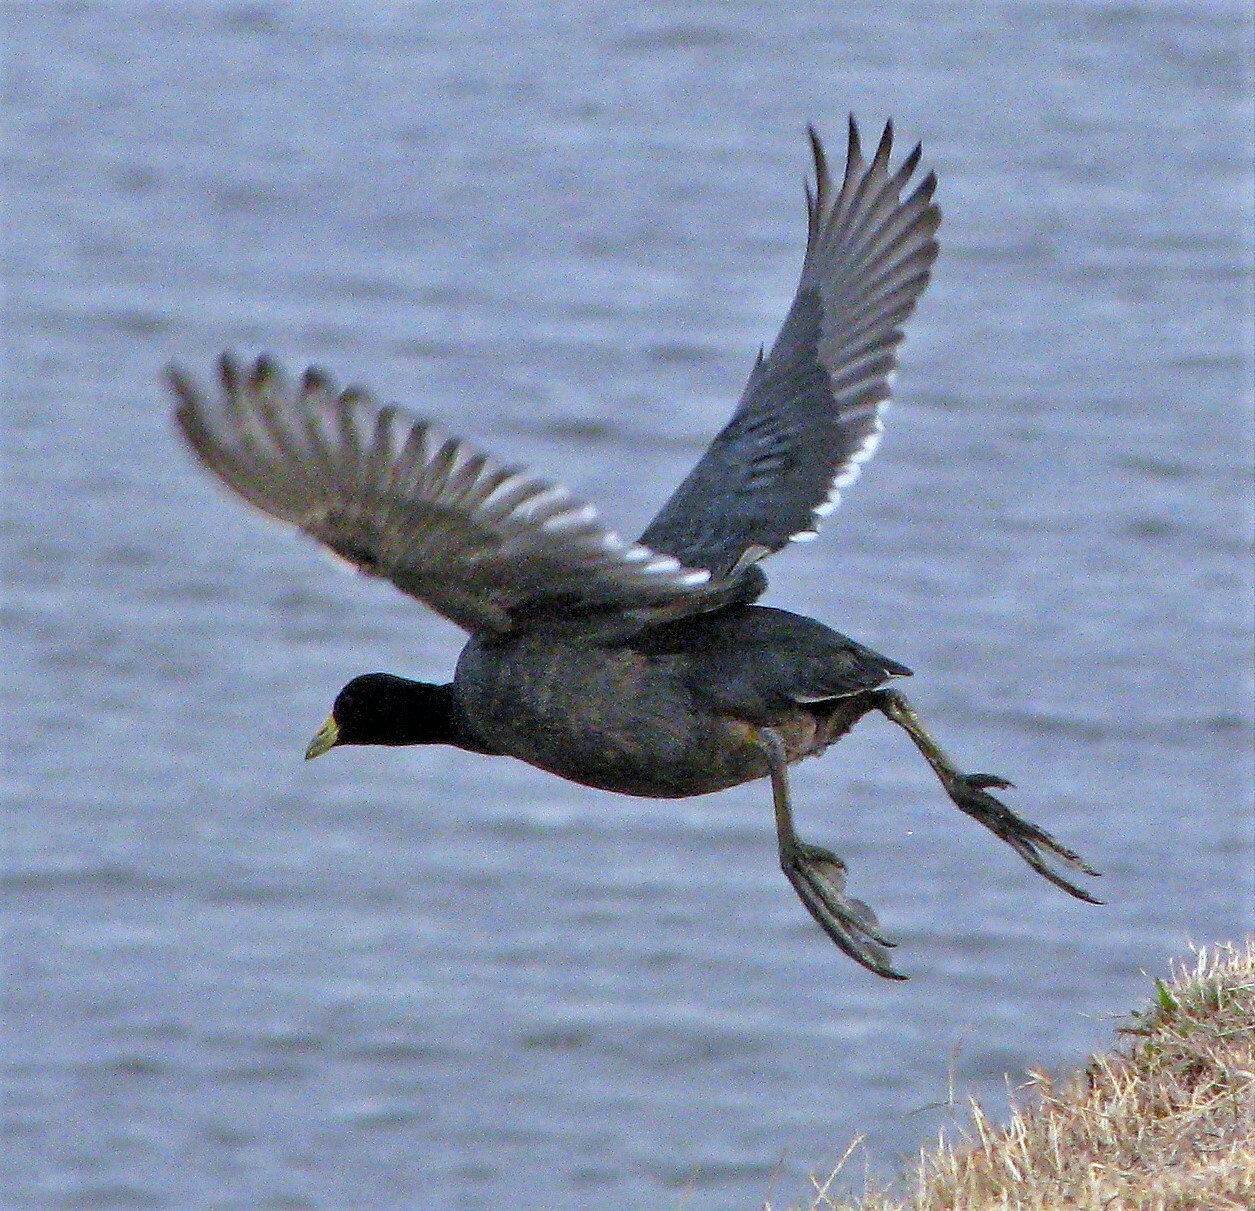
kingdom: Animalia
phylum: Chordata
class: Aves
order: Gruiformes
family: Rallidae
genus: Fulica
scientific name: Fulica leucoptera
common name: White-winged coot
